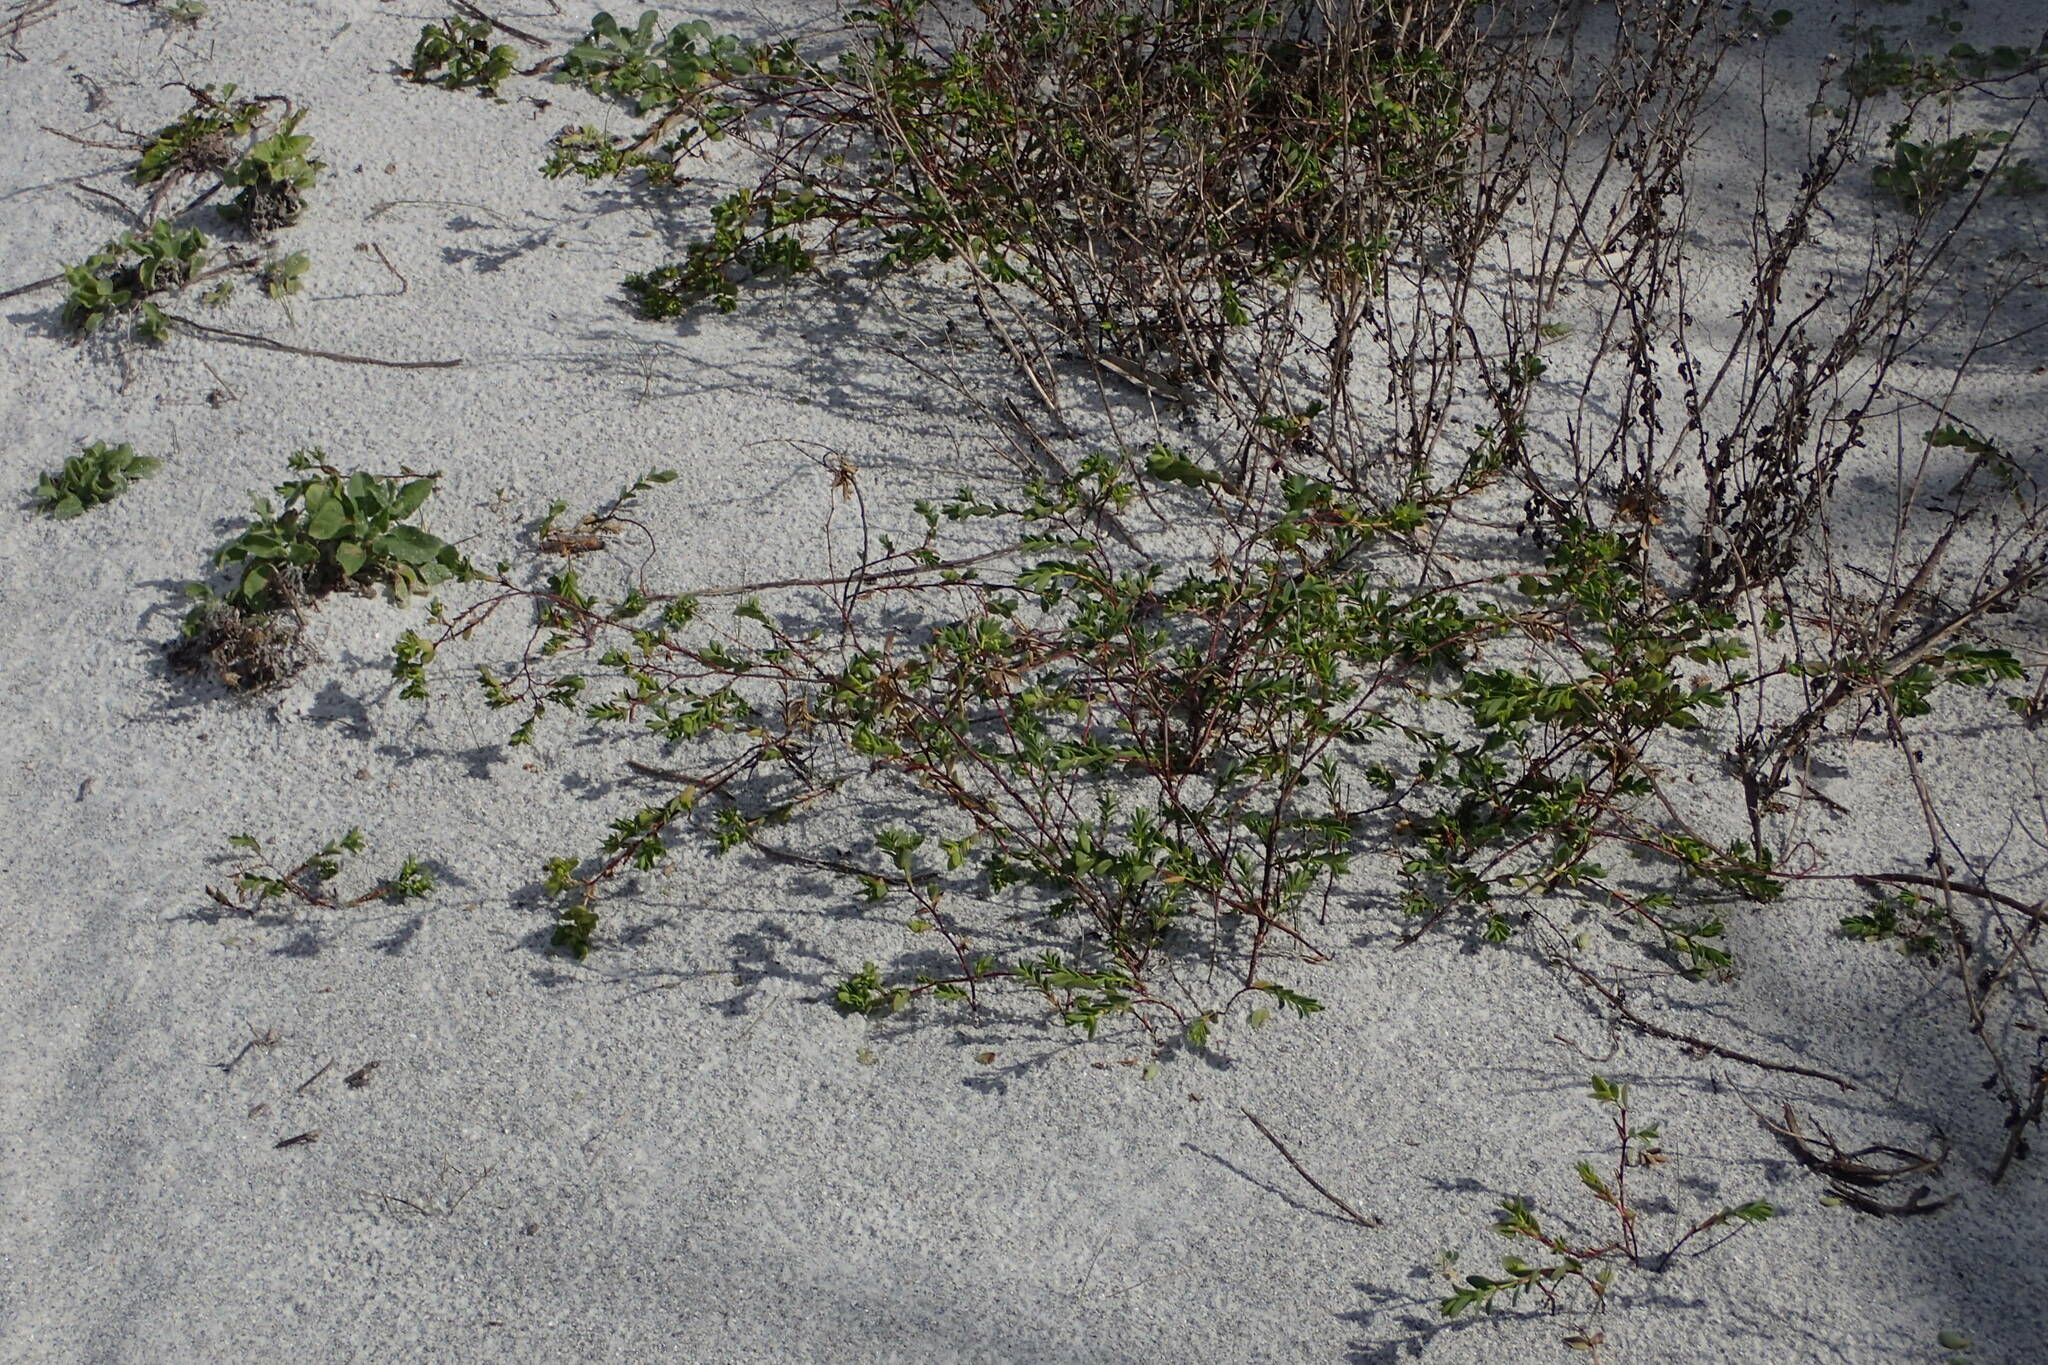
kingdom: Plantae
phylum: Tracheophyta
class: Magnoliopsida
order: Malpighiales
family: Euphorbiaceae
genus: Euphorbia
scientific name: Euphorbia mesembryanthemifolia
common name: Coastal beach sandmat
